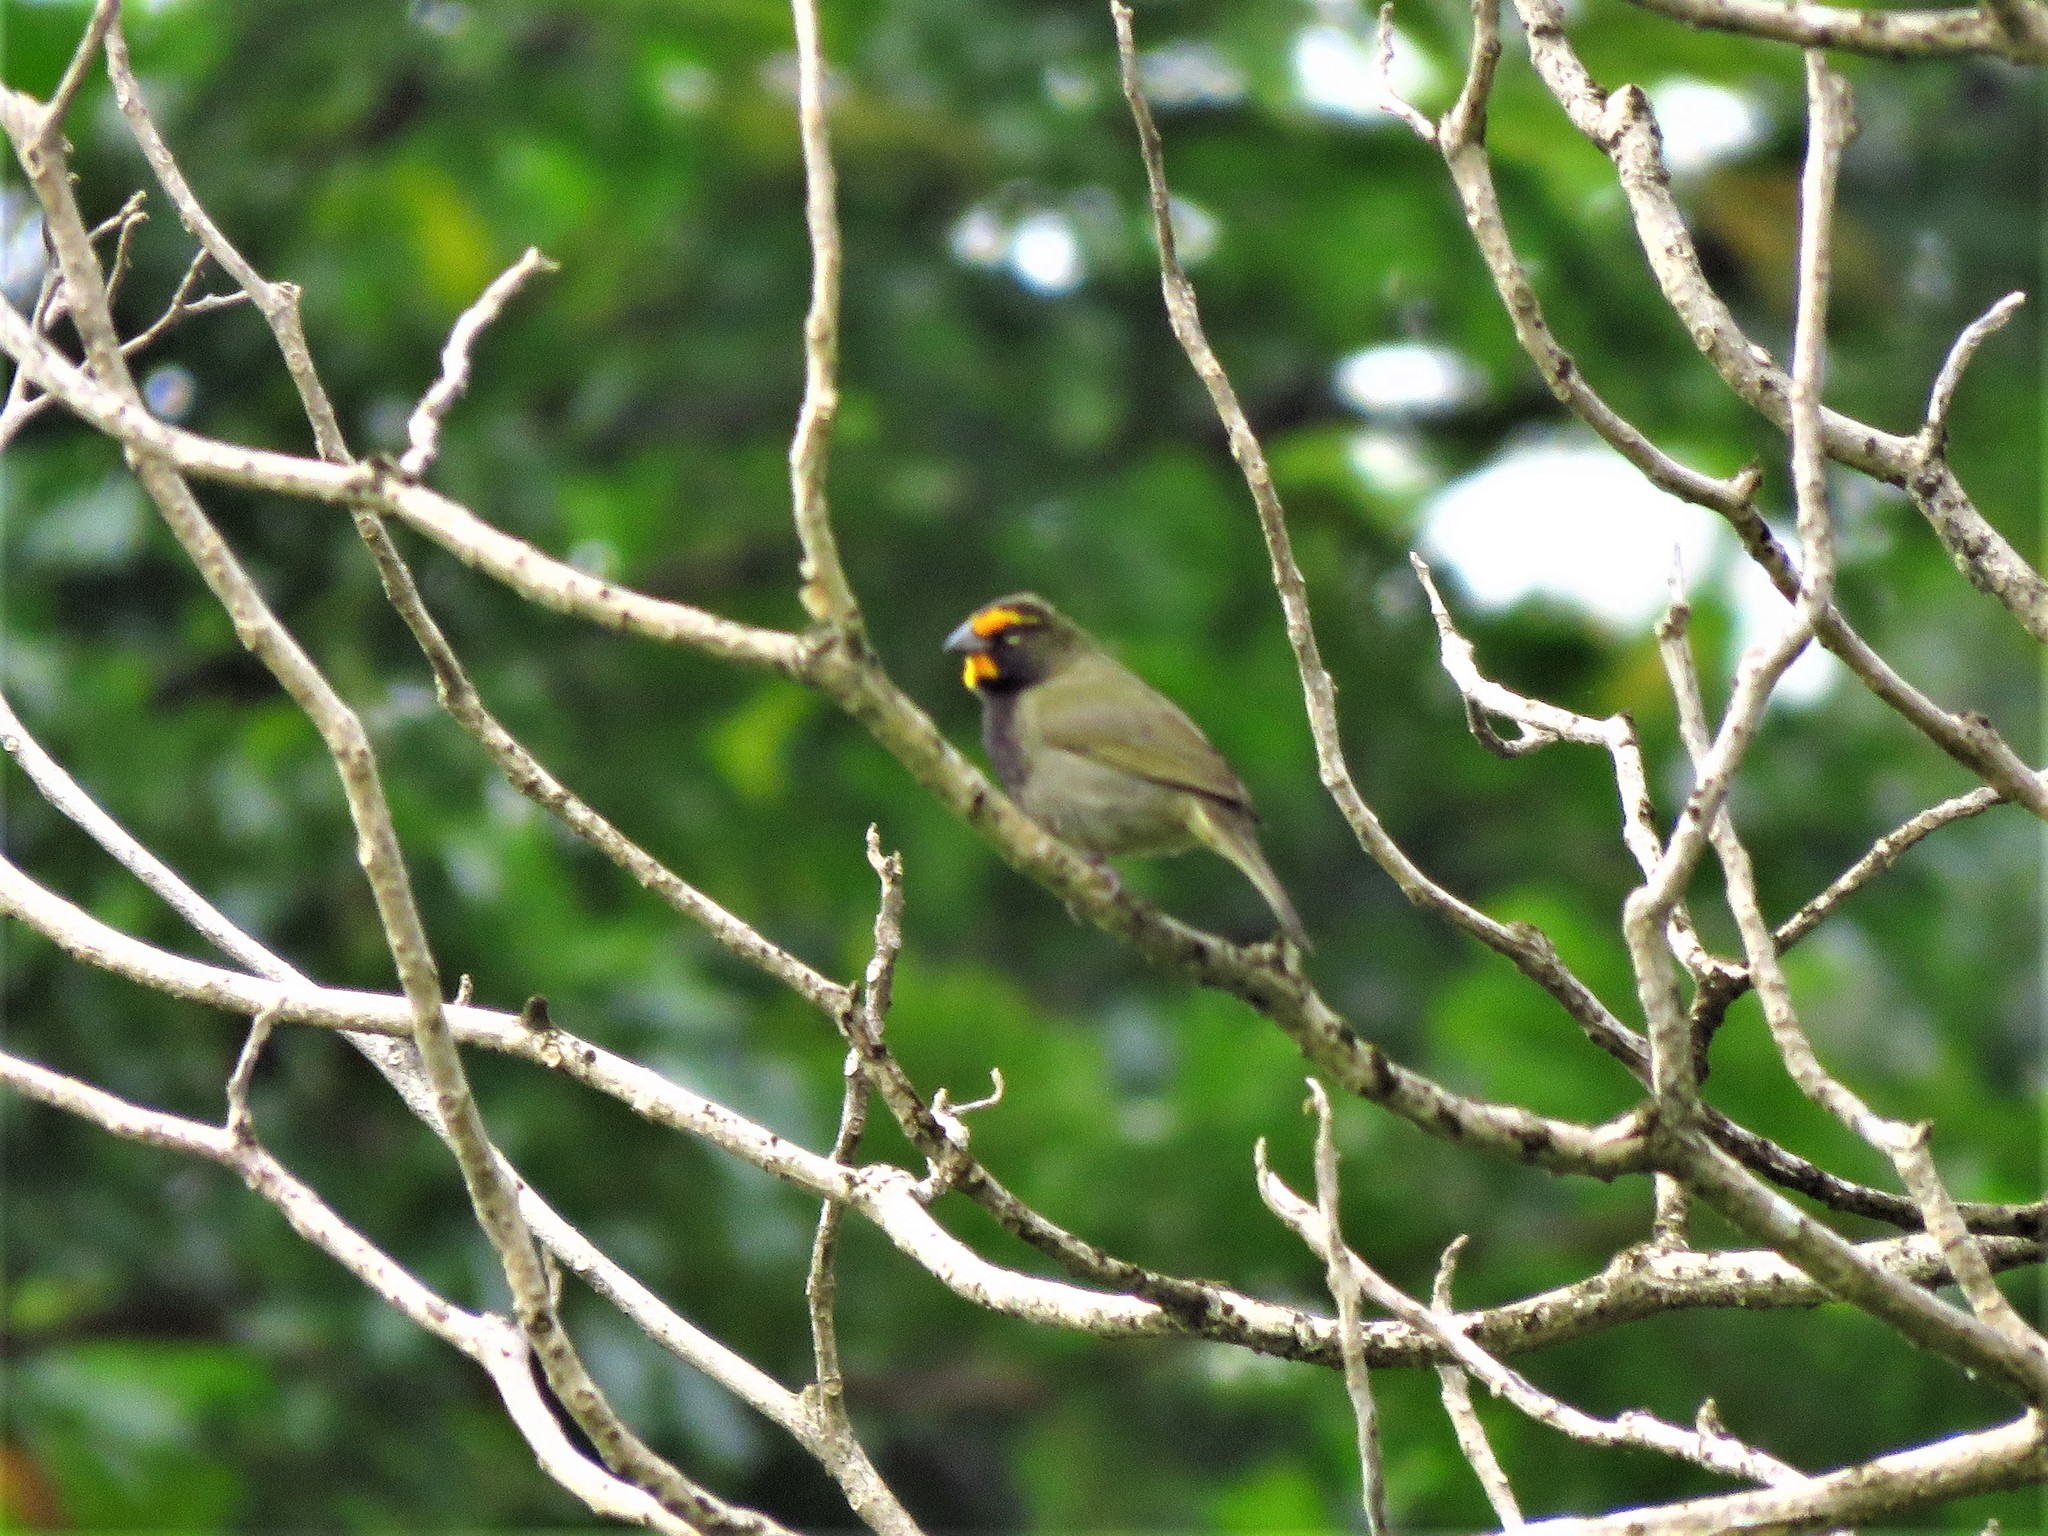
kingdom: Animalia
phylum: Chordata
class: Aves
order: Passeriformes
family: Thraupidae
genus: Tiaris
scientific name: Tiaris olivaceus
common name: Yellow-faced grassquit
